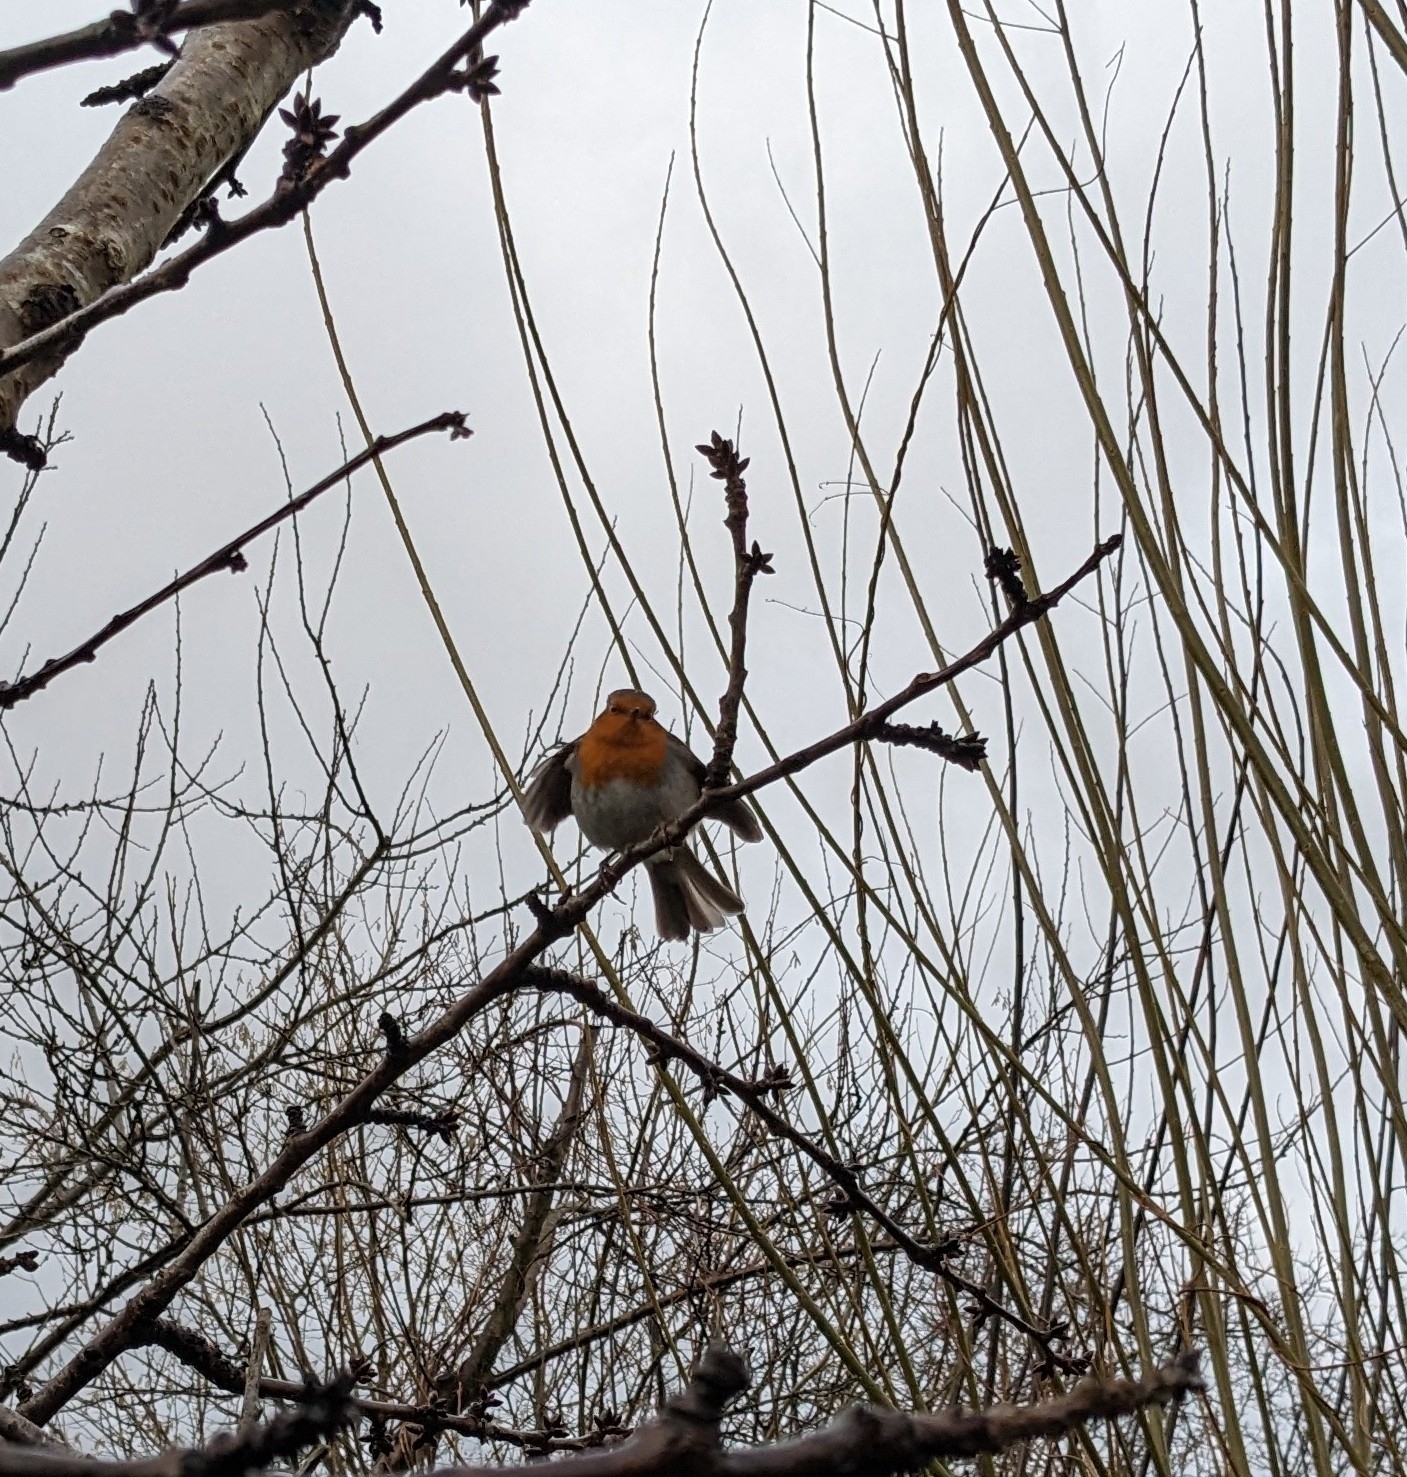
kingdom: Animalia
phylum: Chordata
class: Aves
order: Passeriformes
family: Muscicapidae
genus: Erithacus
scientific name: Erithacus rubecula
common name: European robin
